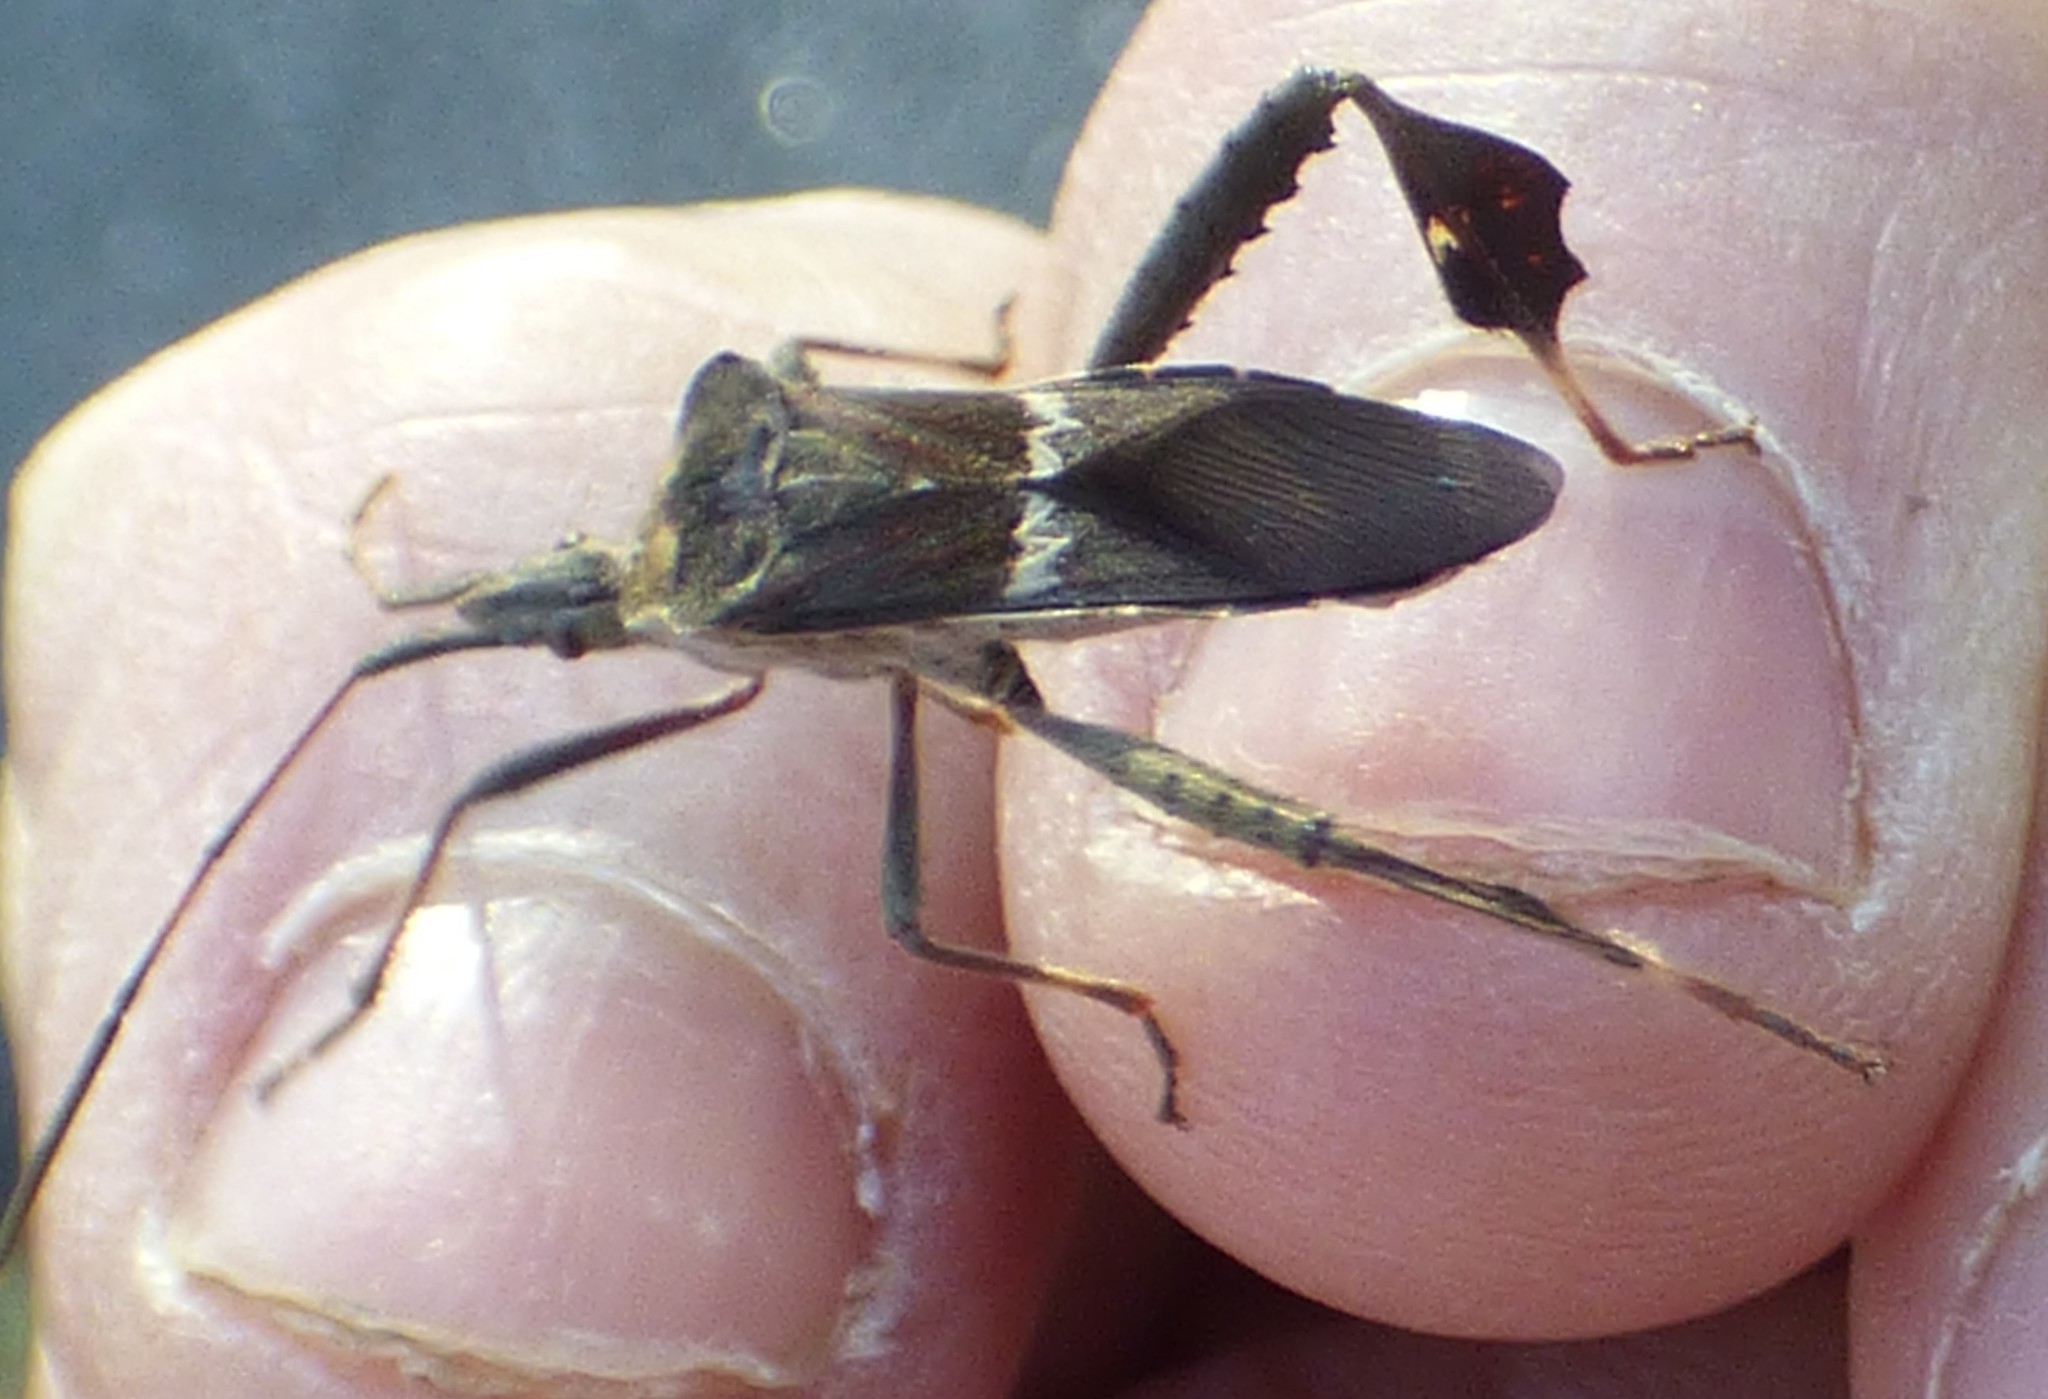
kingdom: Animalia
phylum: Arthropoda
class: Insecta
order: Hemiptera
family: Coreidae
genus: Leptoglossus
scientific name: Leptoglossus zonatus
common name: Large-legged bug
